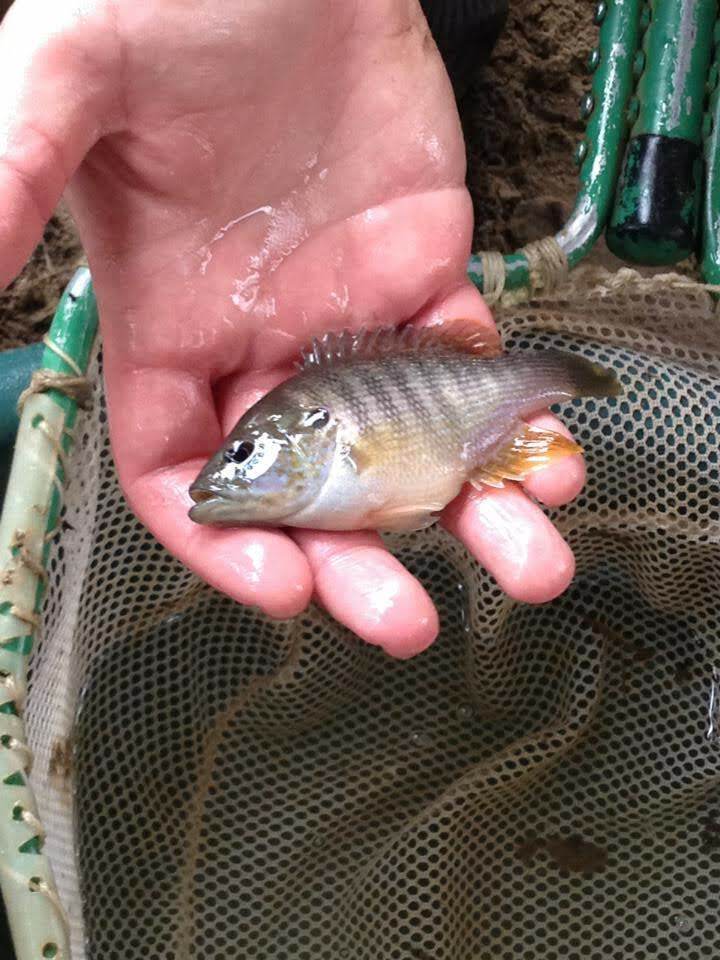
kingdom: Animalia
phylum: Chordata
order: Perciformes
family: Centrarchidae
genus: Lepomis
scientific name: Lepomis cyanellus
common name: Green sunfish
